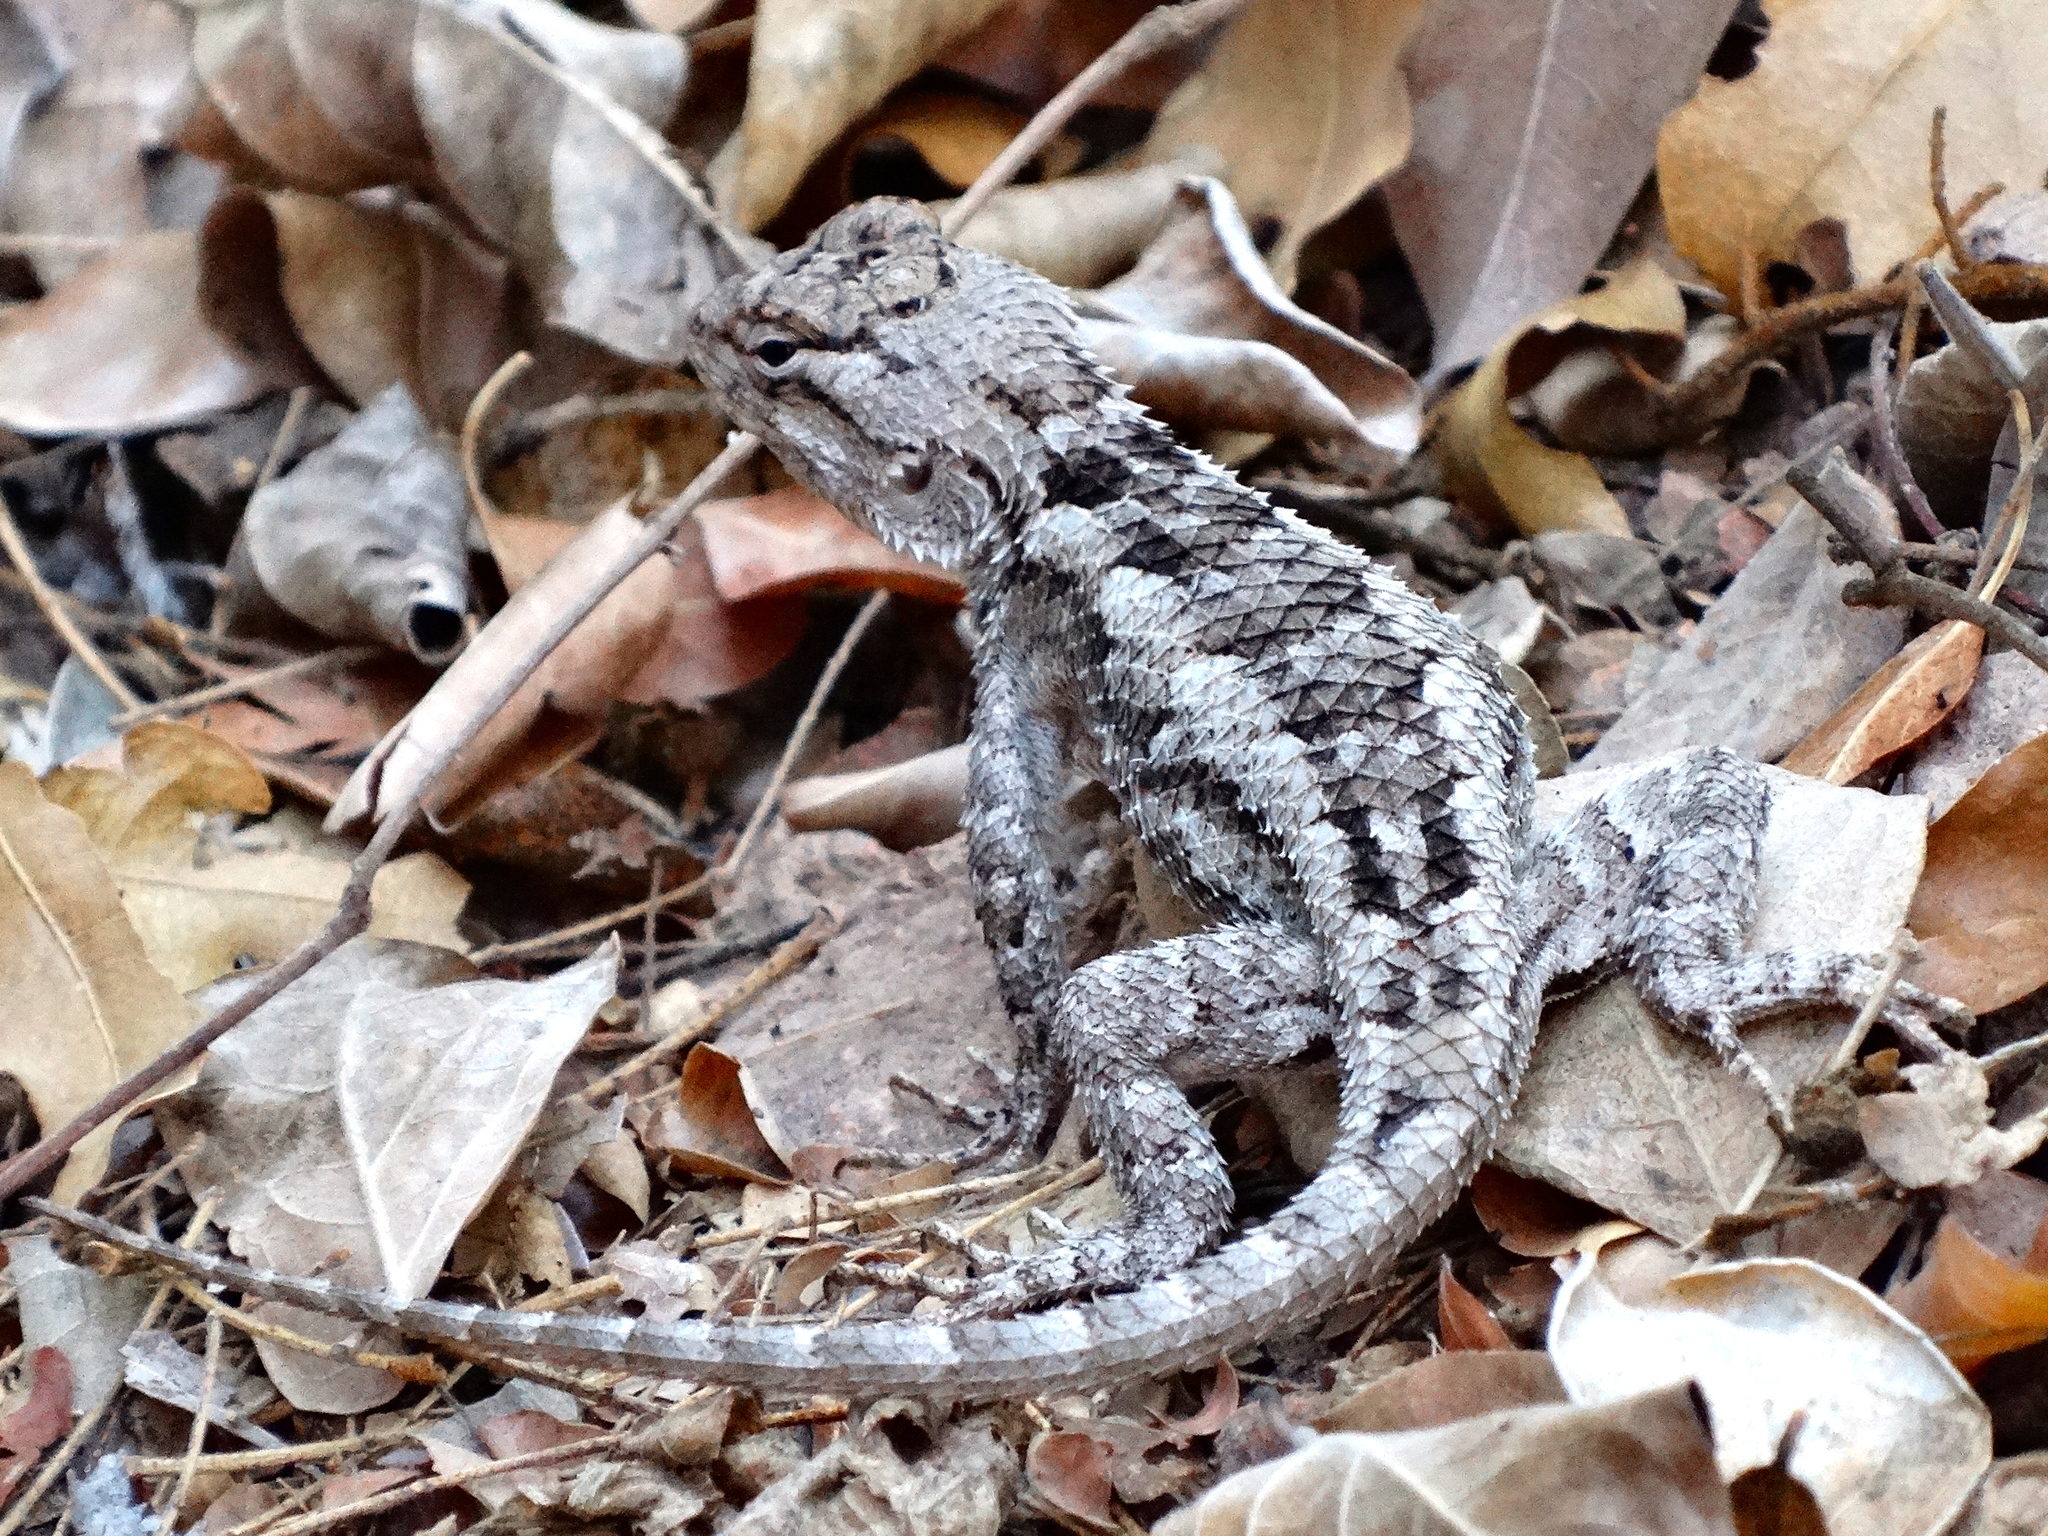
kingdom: Animalia
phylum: Chordata
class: Squamata
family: Phrynosomatidae
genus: Sceloporus
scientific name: Sceloporus clarkii
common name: Clark's spiny lizard
